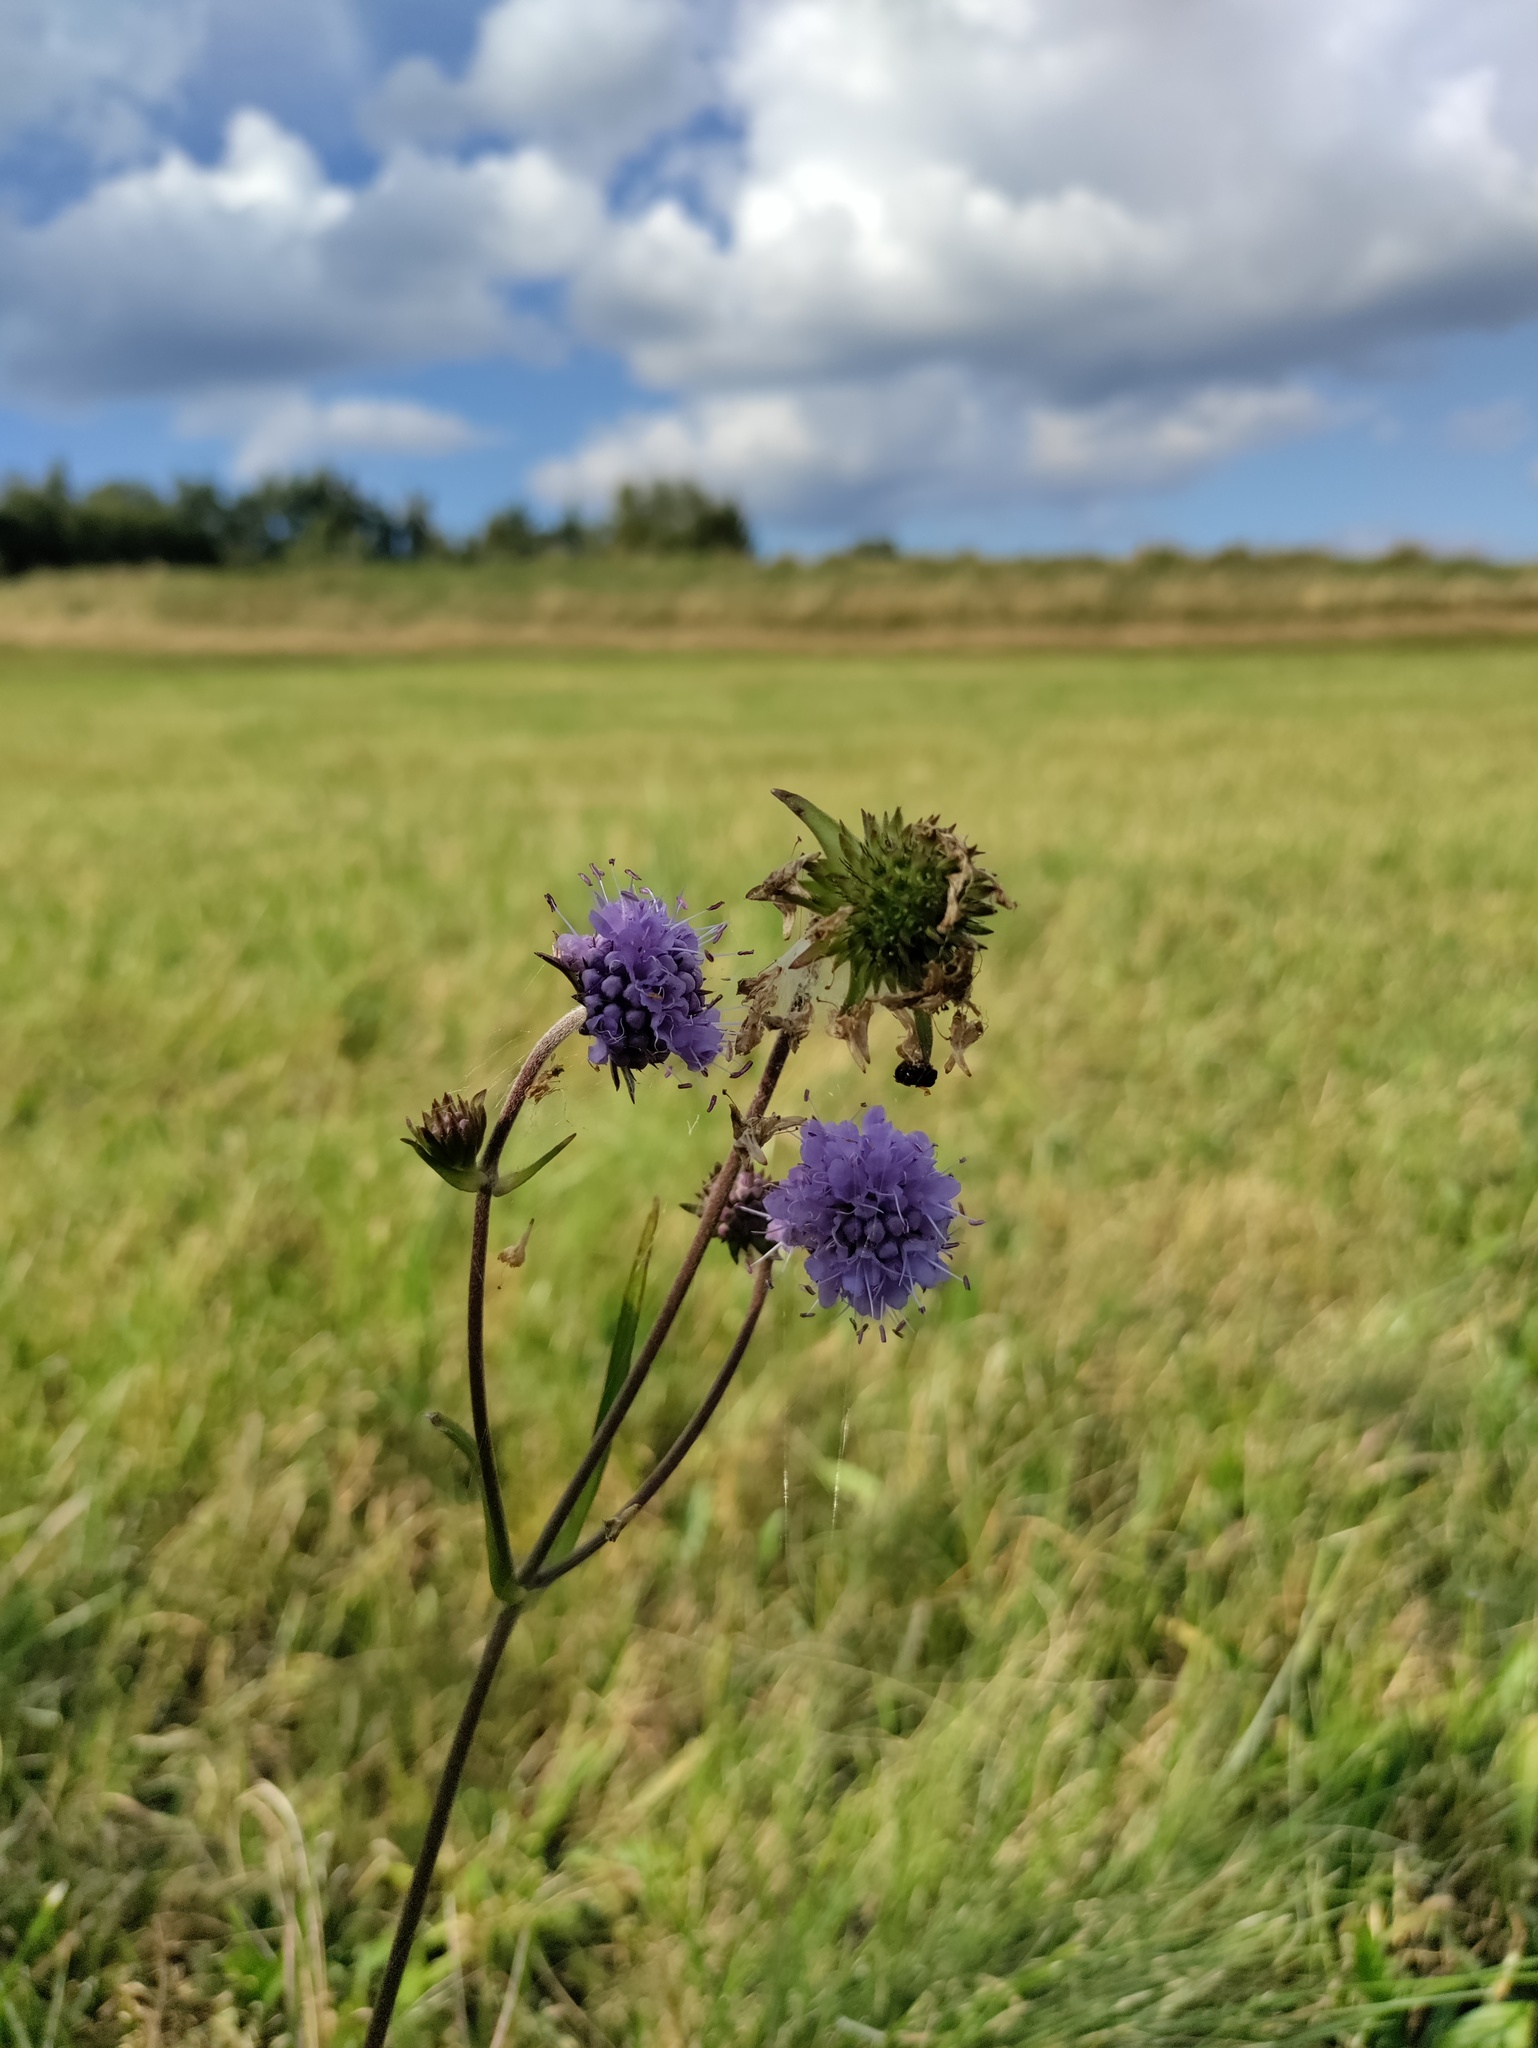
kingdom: Plantae
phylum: Tracheophyta
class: Magnoliopsida
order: Dipsacales
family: Caprifoliaceae
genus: Succisa
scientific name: Succisa pratensis
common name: Devil's-bit
